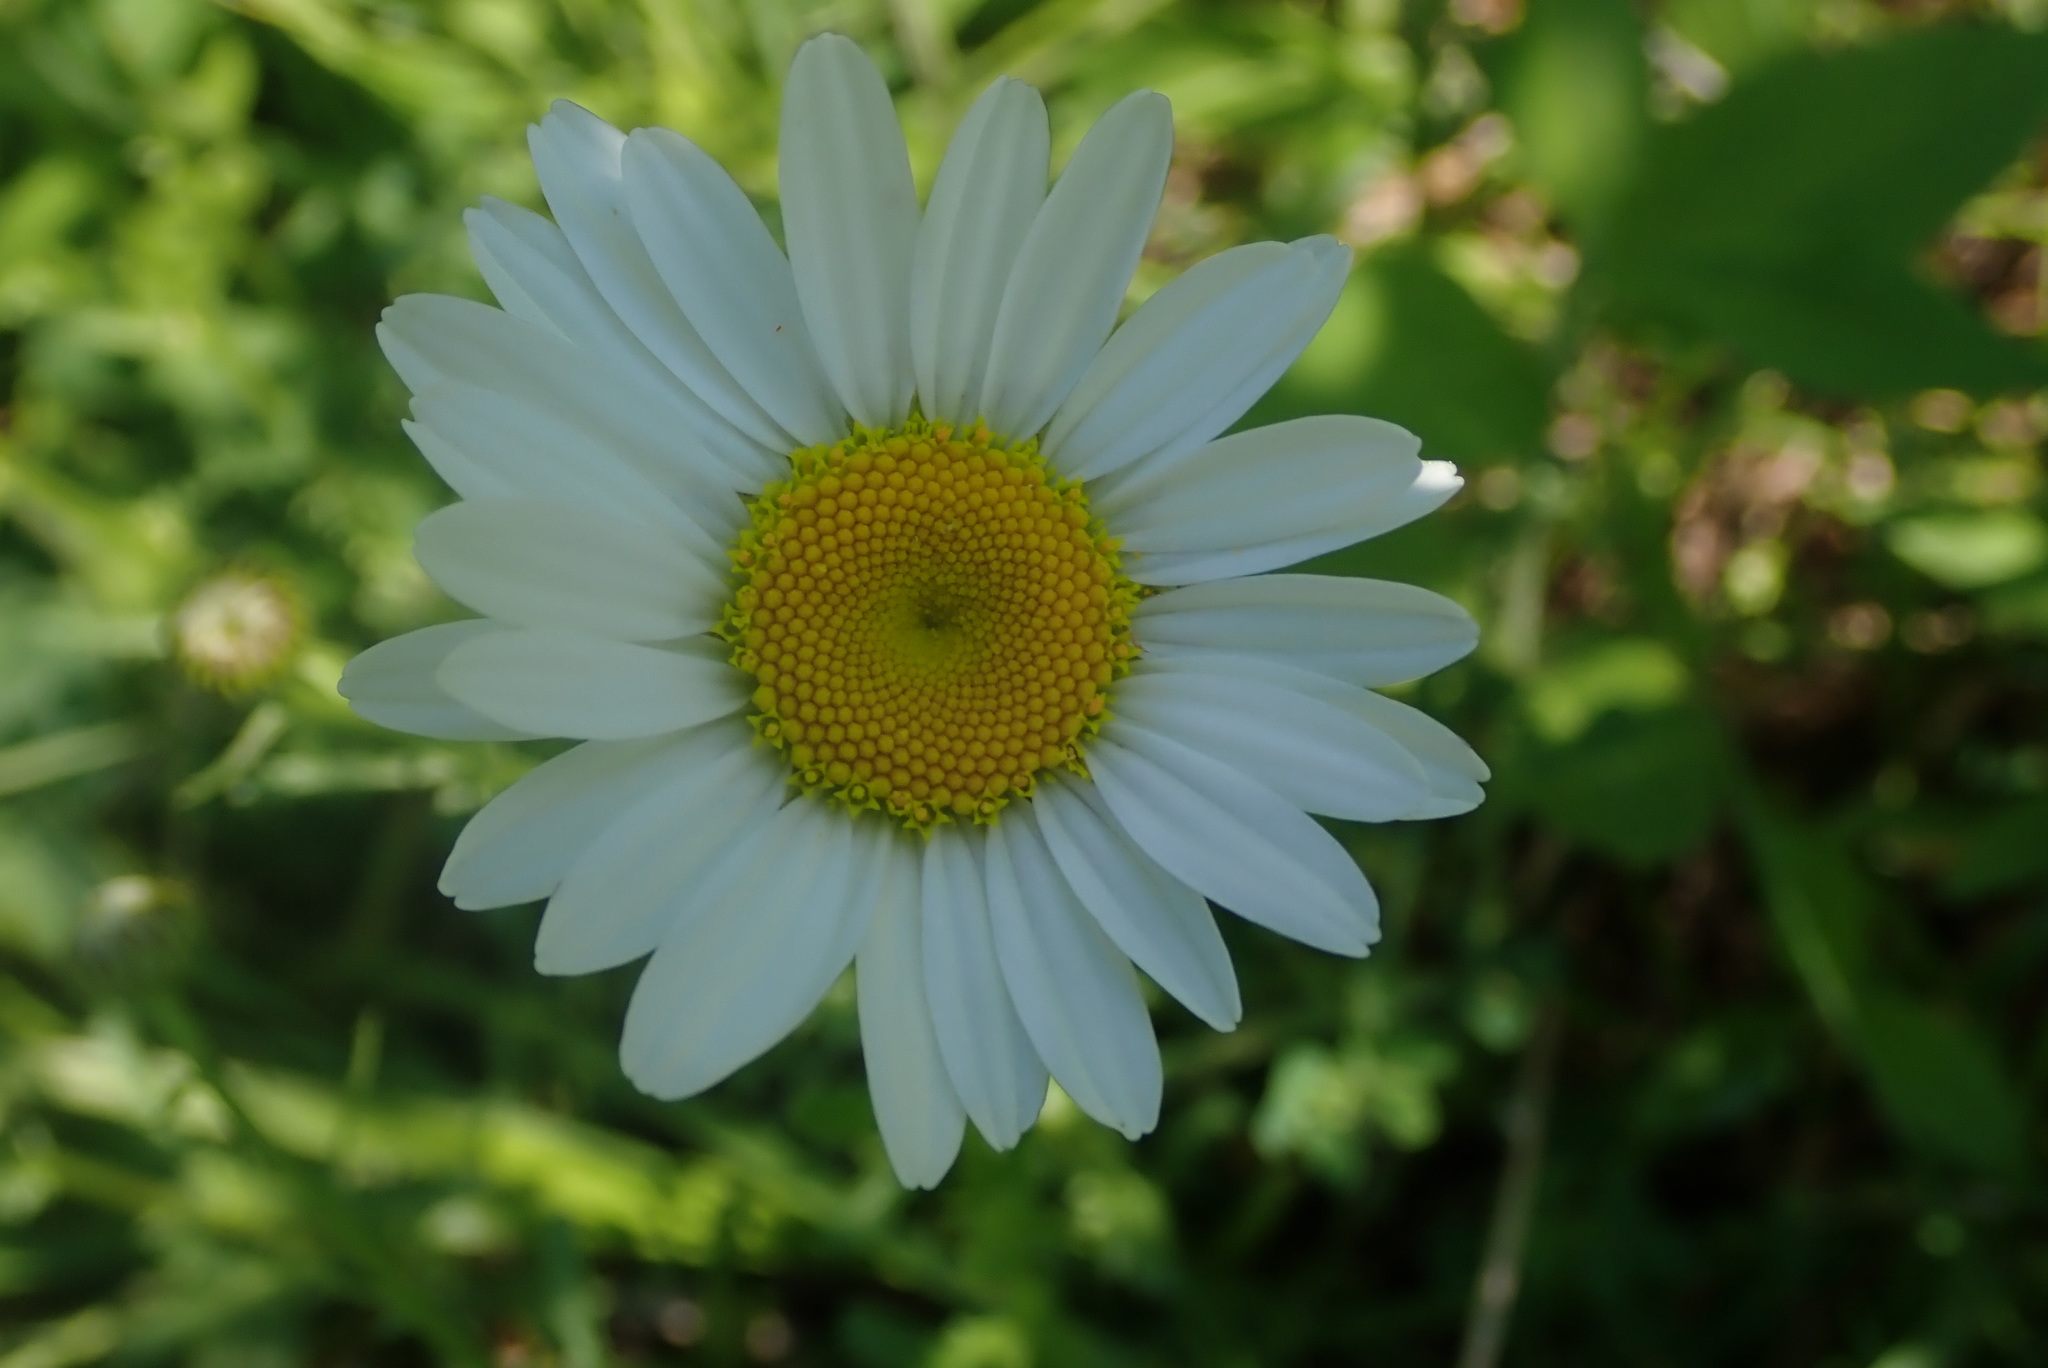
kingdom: Plantae
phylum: Tracheophyta
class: Magnoliopsida
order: Asterales
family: Asteraceae
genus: Leucanthemum
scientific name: Leucanthemum vulgare
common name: Oxeye daisy
